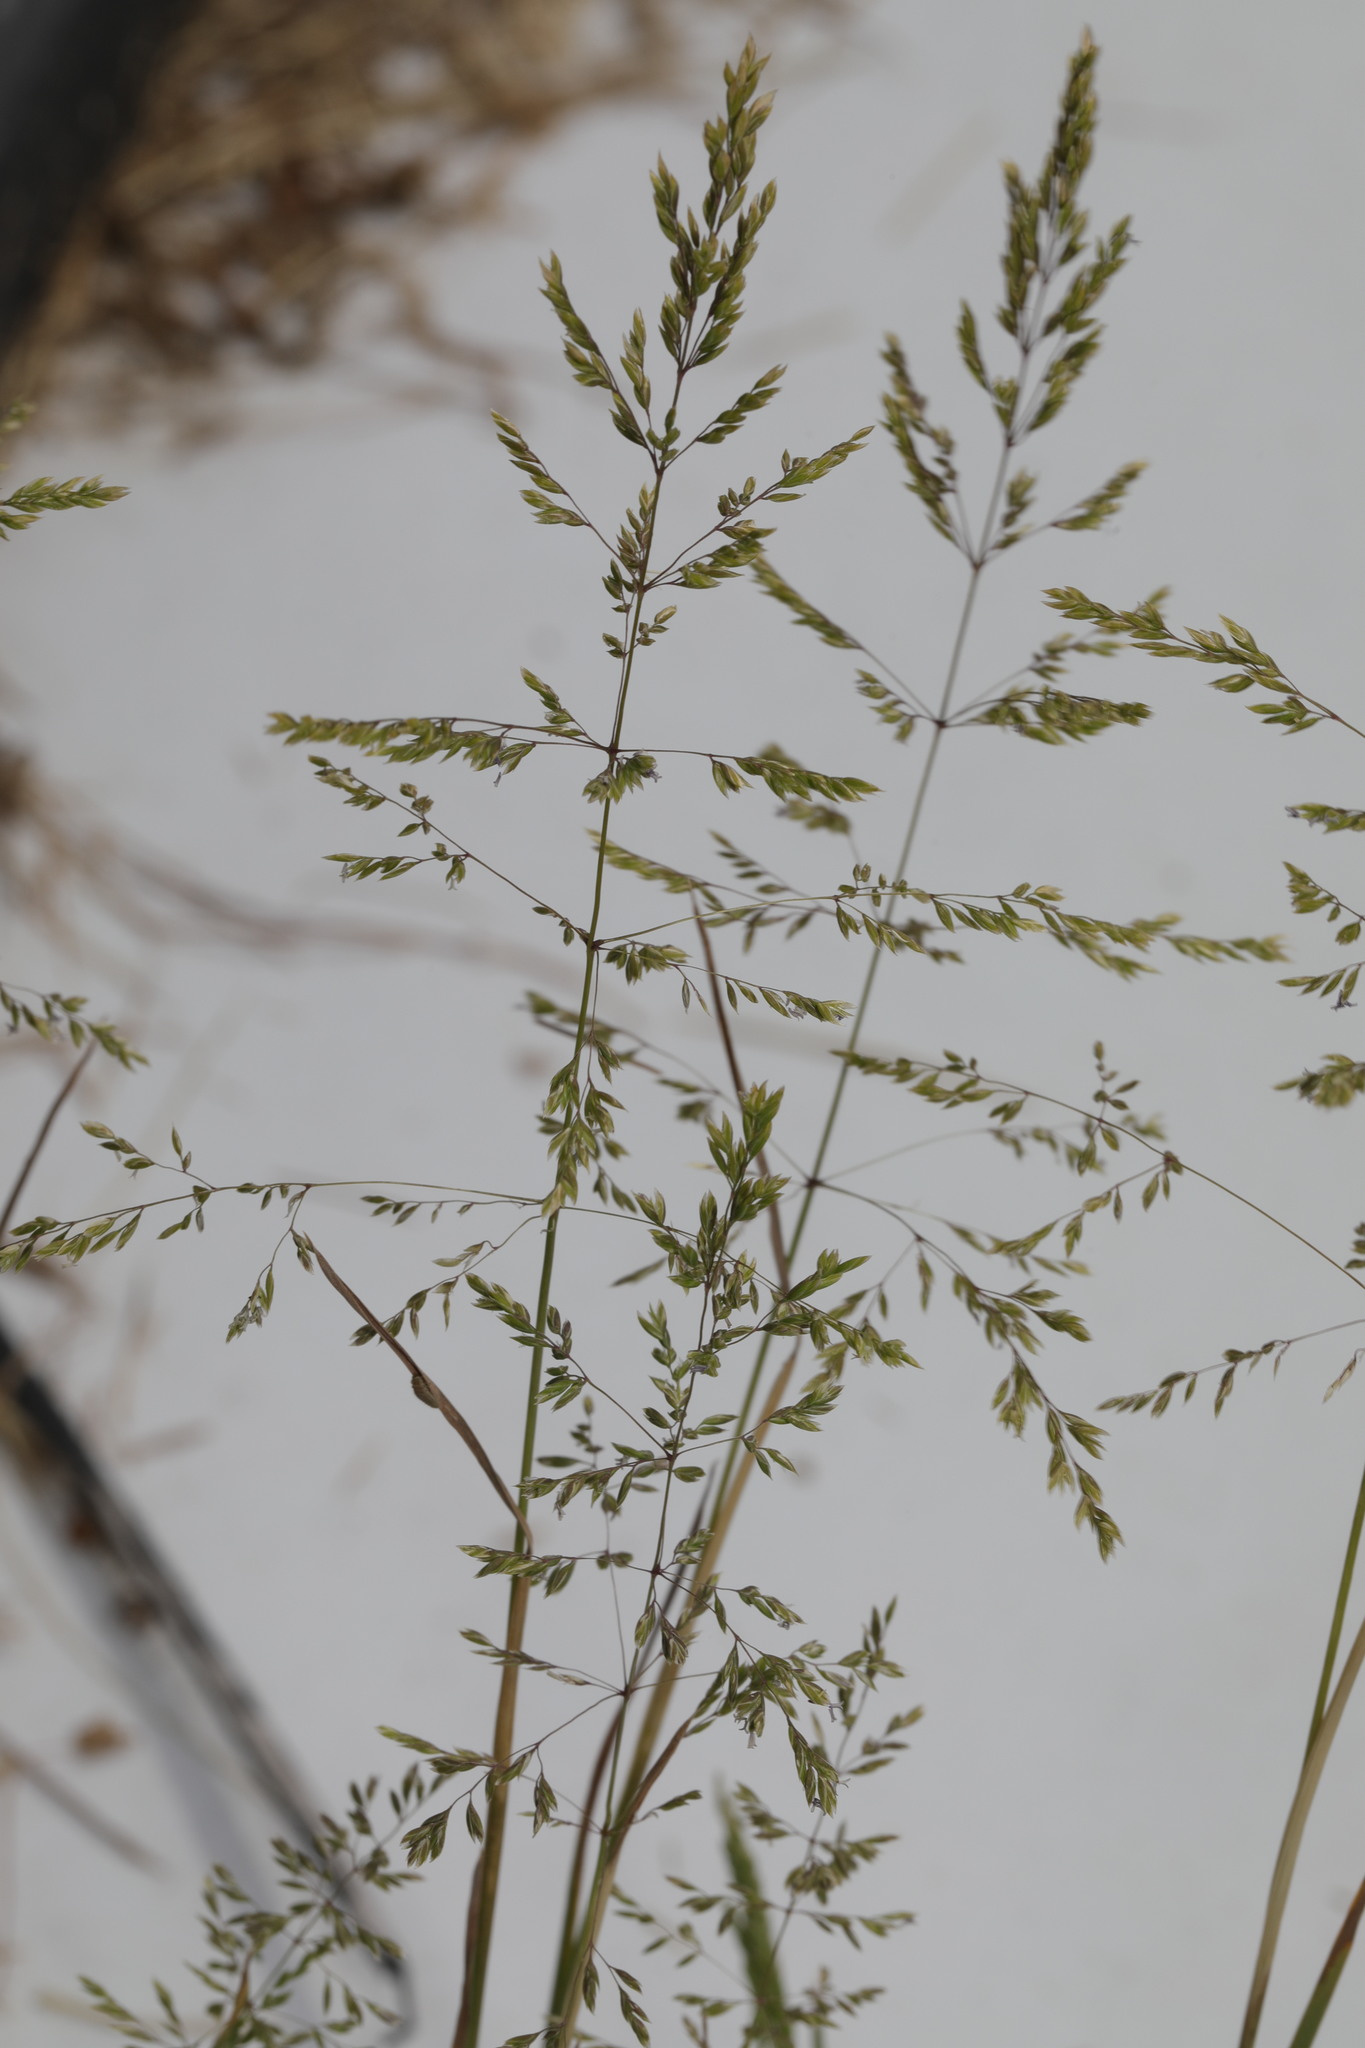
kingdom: Plantae
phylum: Tracheophyta
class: Liliopsida
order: Poales
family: Poaceae
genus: Poa
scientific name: Poa trivialis
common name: Rough bluegrass
